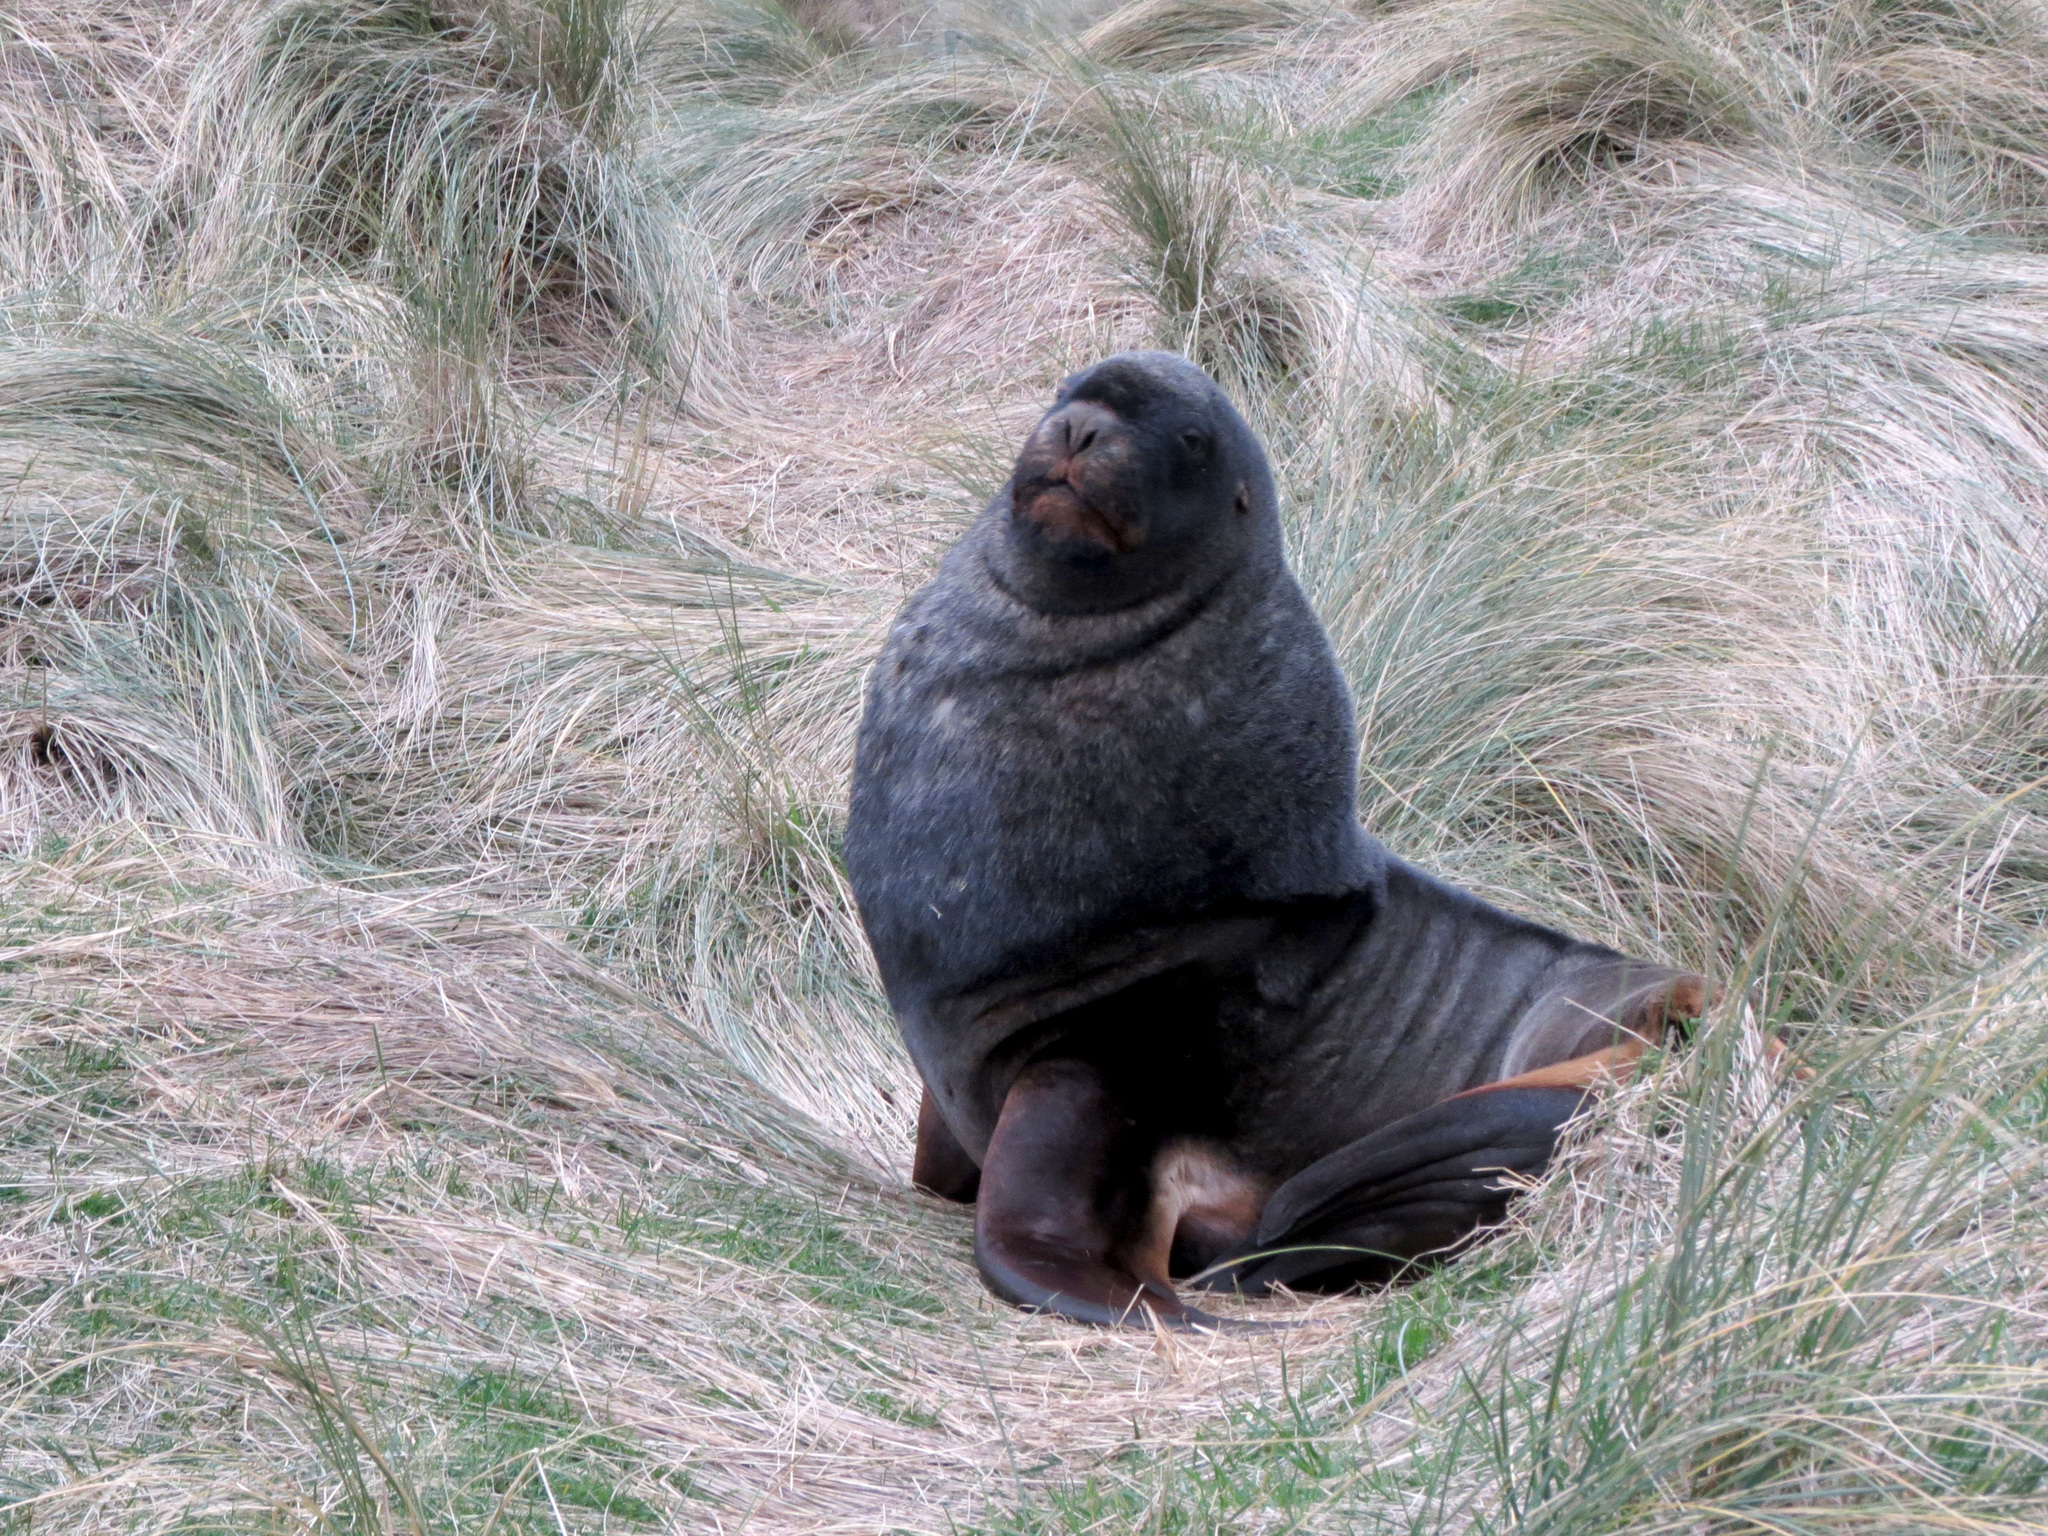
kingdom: Animalia
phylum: Chordata
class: Mammalia
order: Carnivora
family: Otariidae
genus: Phocarctos
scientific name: Phocarctos hookeri
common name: New zealand sea lion
